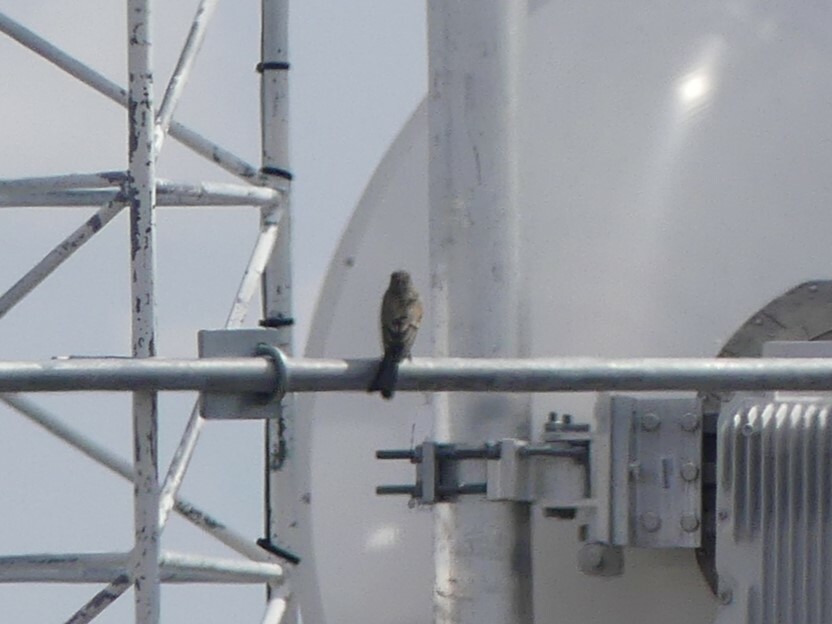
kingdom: Animalia
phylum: Chordata
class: Aves
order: Passeriformes
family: Tyrannidae
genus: Sayornis
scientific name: Sayornis saya
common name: Say's phoebe
